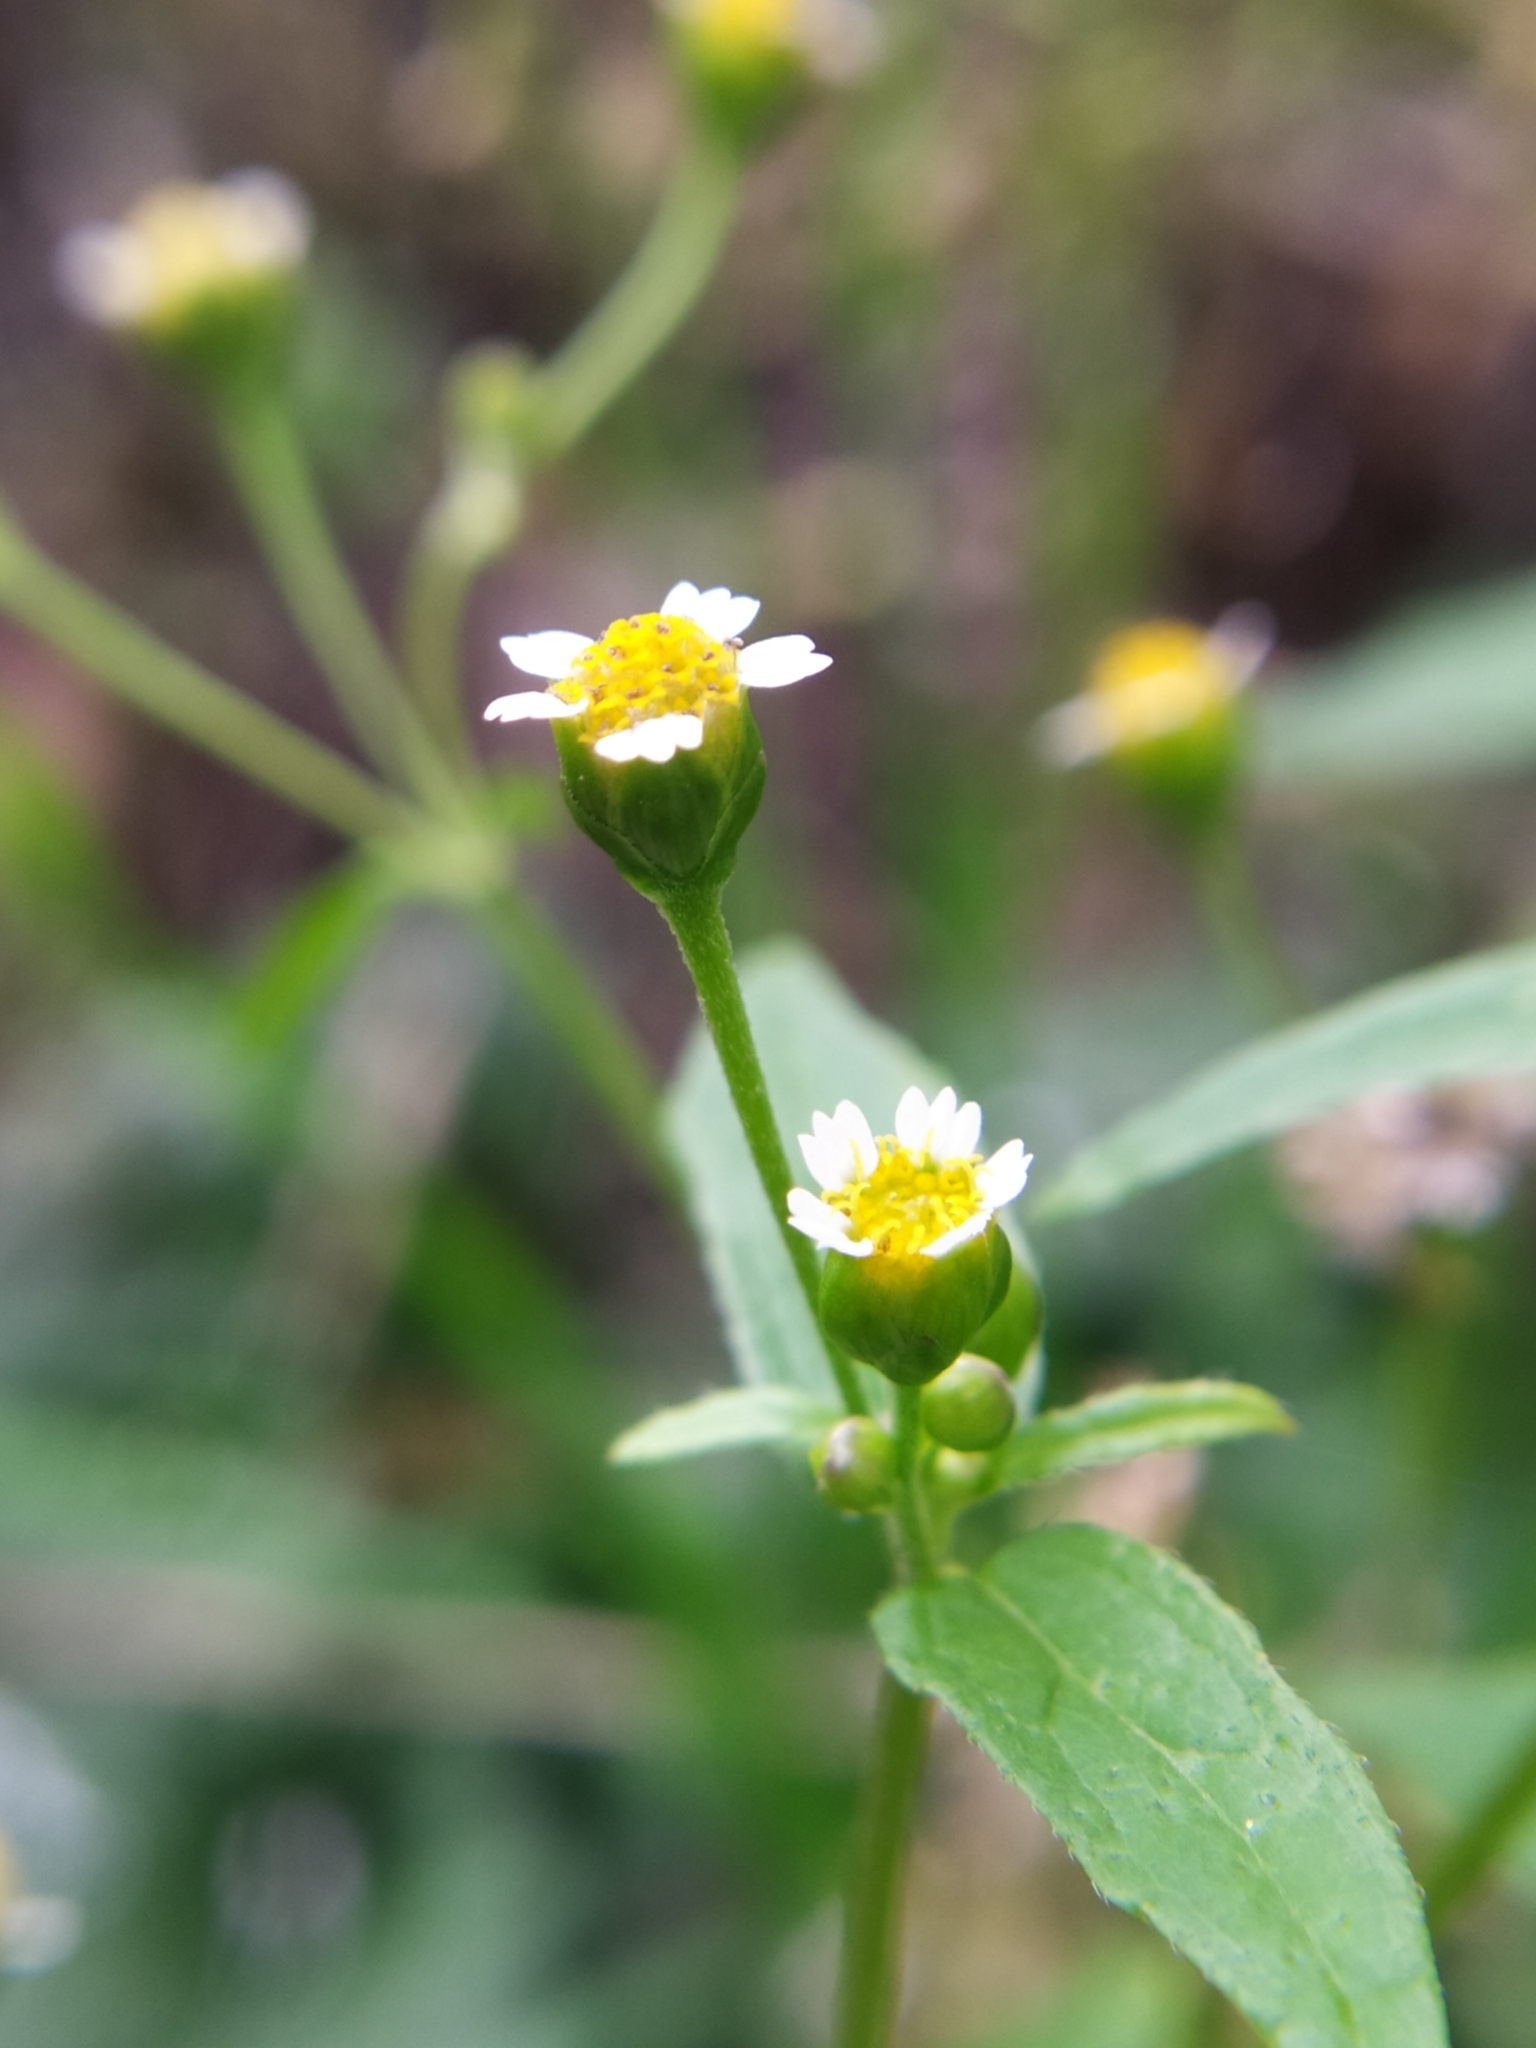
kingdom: Plantae
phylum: Tracheophyta
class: Magnoliopsida
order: Asterales
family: Asteraceae
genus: Galinsoga
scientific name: Galinsoga parviflora
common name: Gallant soldier
